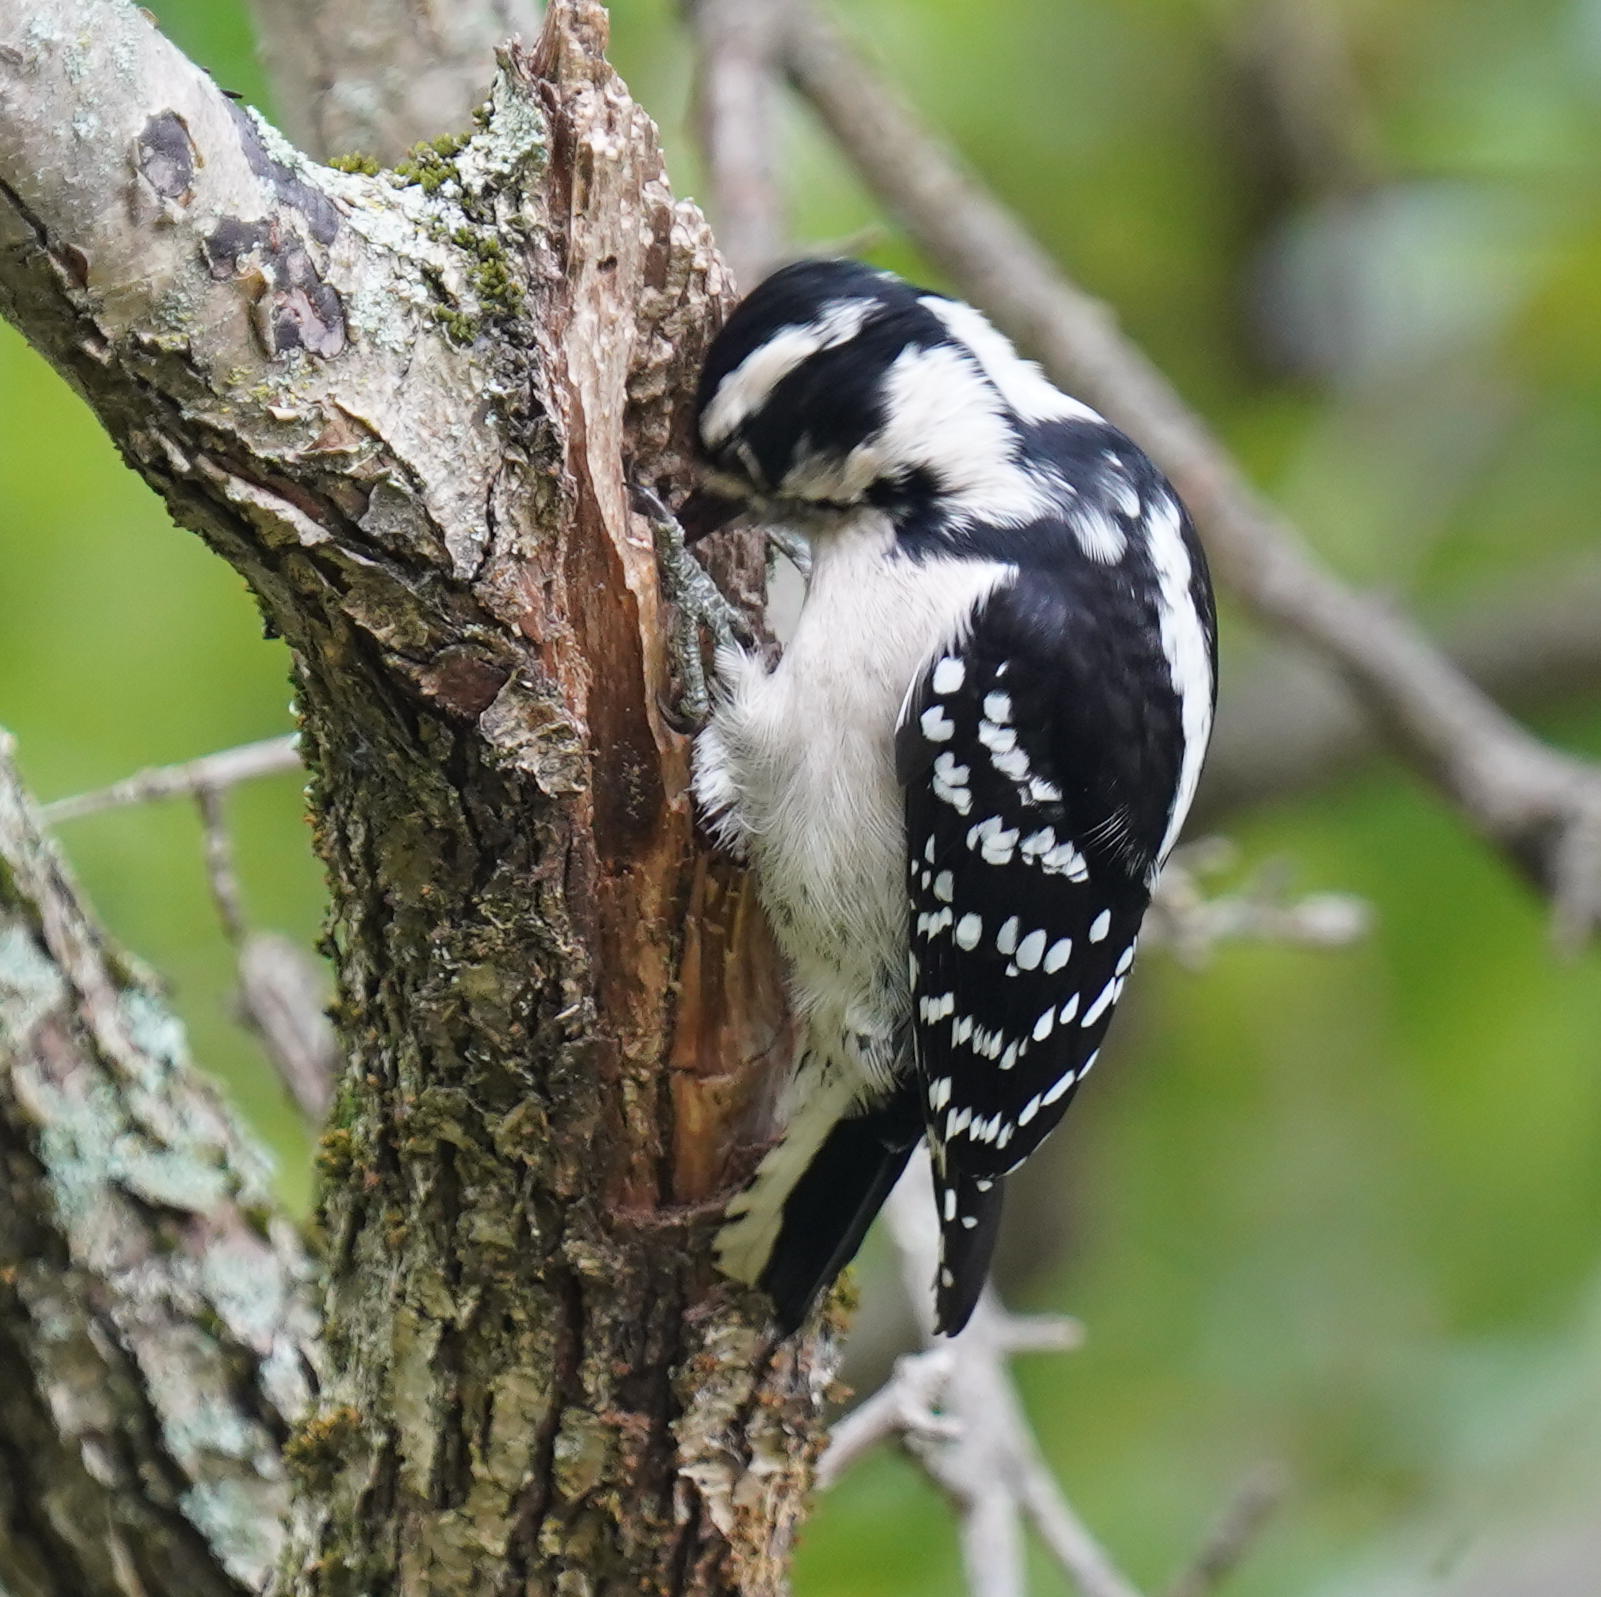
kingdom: Animalia
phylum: Chordata
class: Aves
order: Piciformes
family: Picidae
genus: Dryobates
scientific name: Dryobates pubescens
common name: Downy woodpecker
